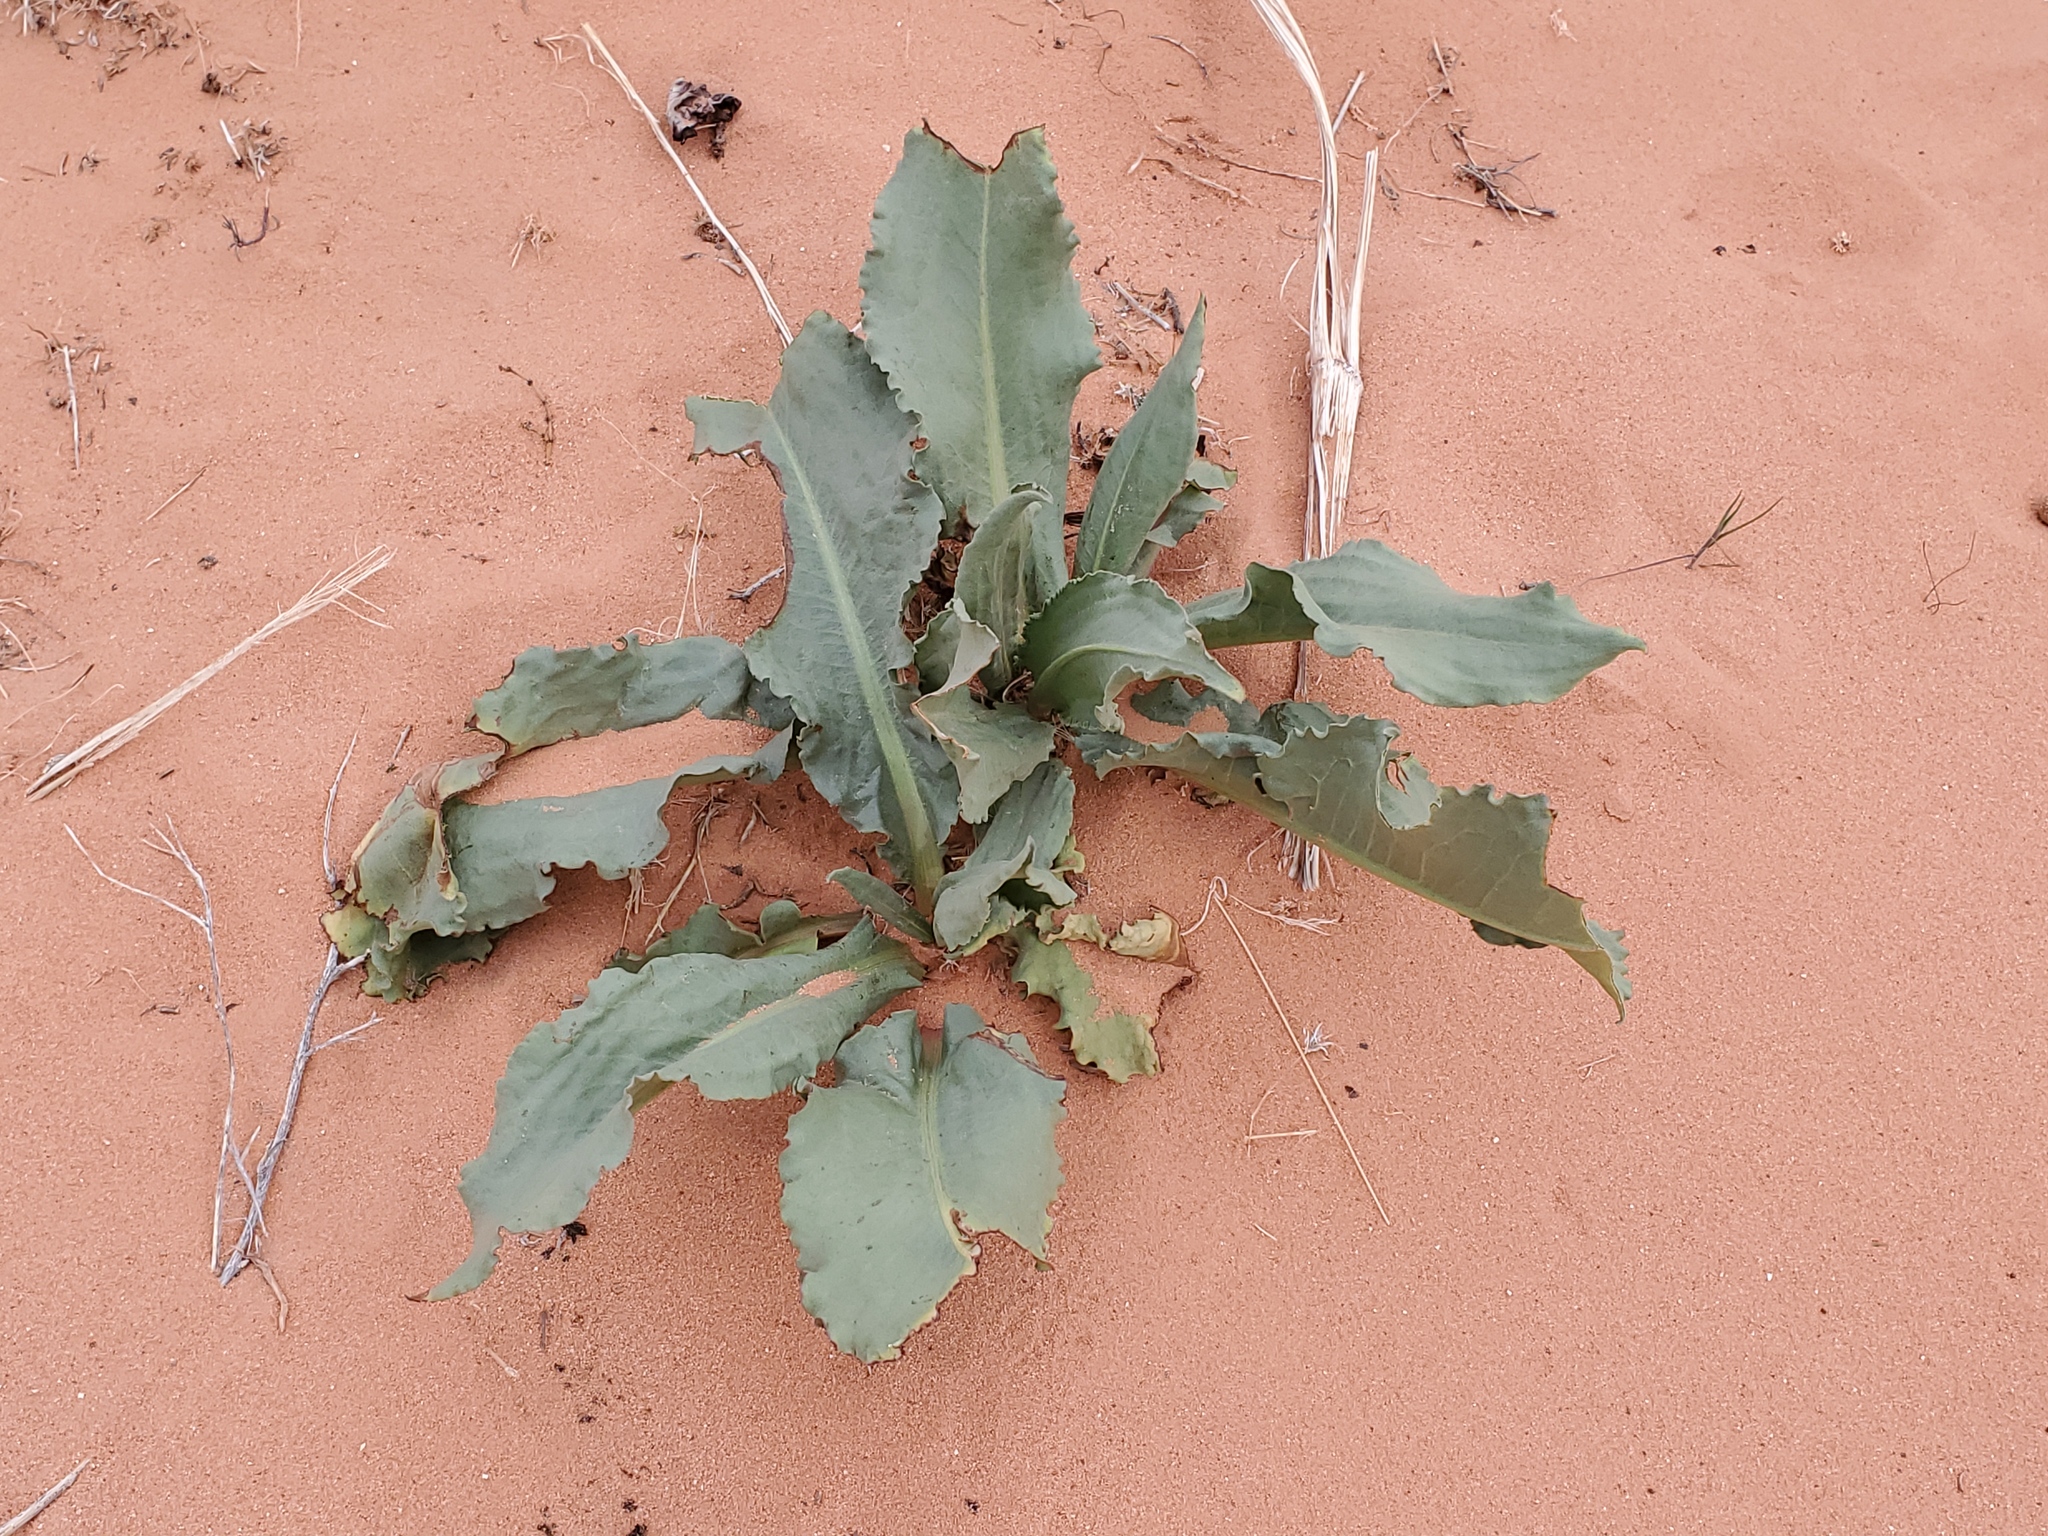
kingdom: Plantae
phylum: Tracheophyta
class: Magnoliopsida
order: Caryophyllales
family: Polygonaceae
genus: Rumex
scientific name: Rumex hymenosepalus
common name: Ganagra
